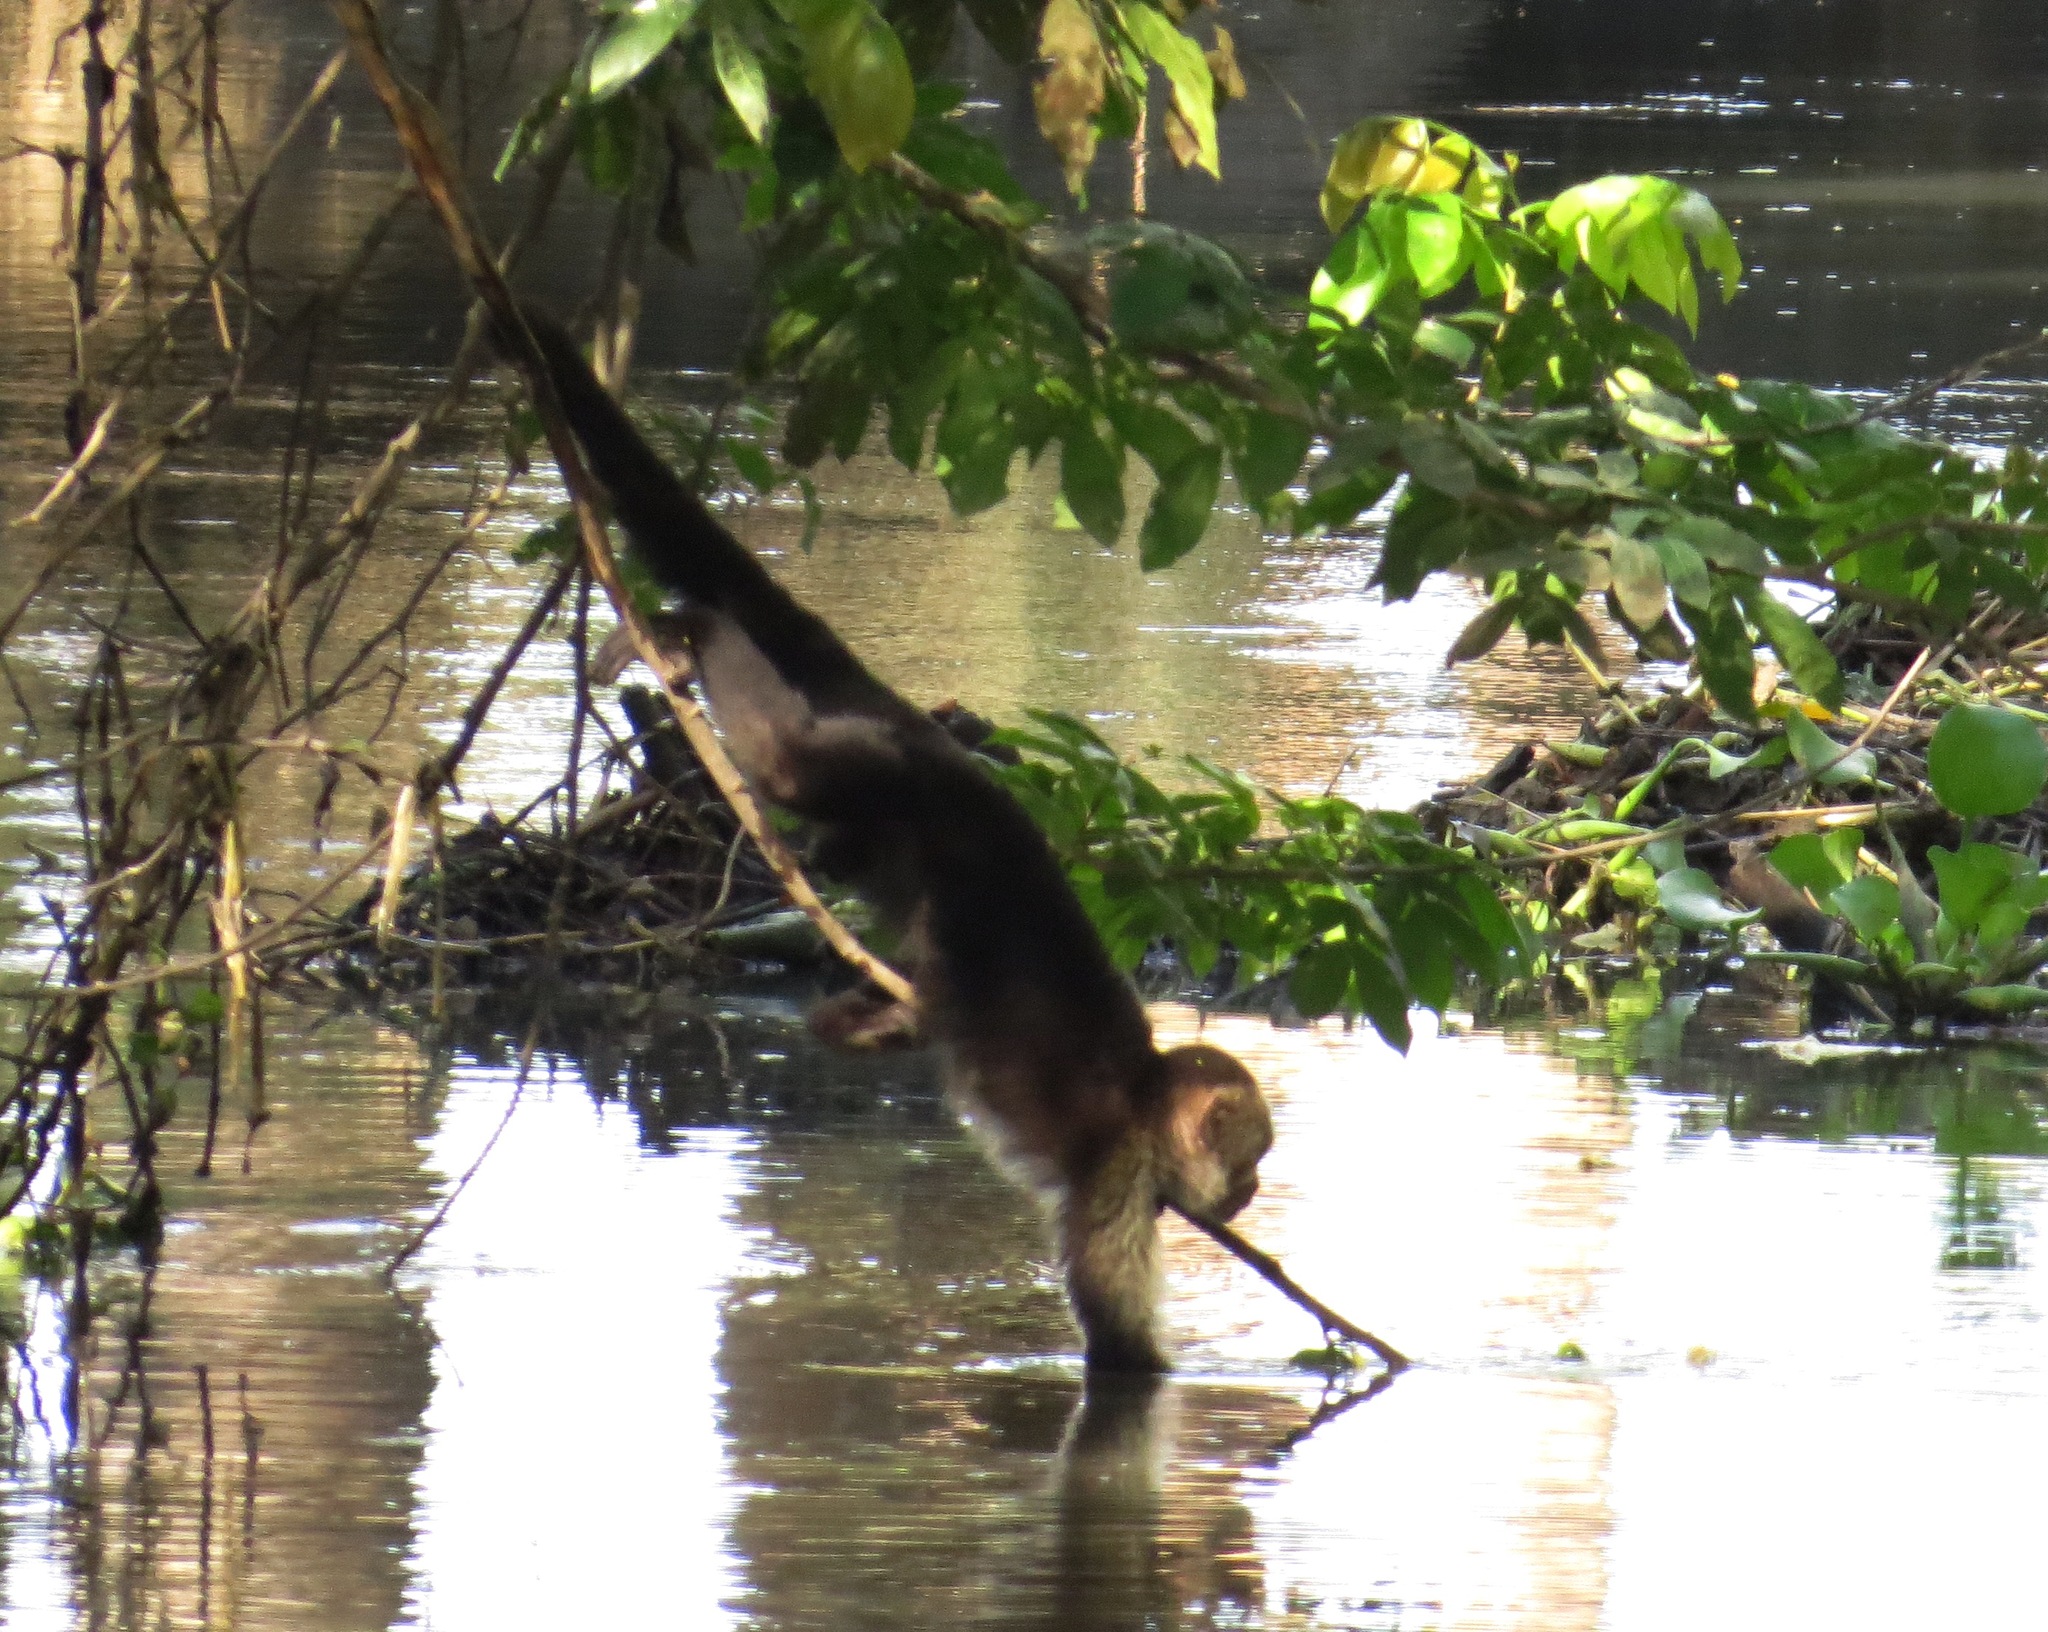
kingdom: Animalia
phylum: Chordata
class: Mammalia
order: Primates
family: Cebidae
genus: Cebus
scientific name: Cebus imitator
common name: Panamanian white-faced capuchin
